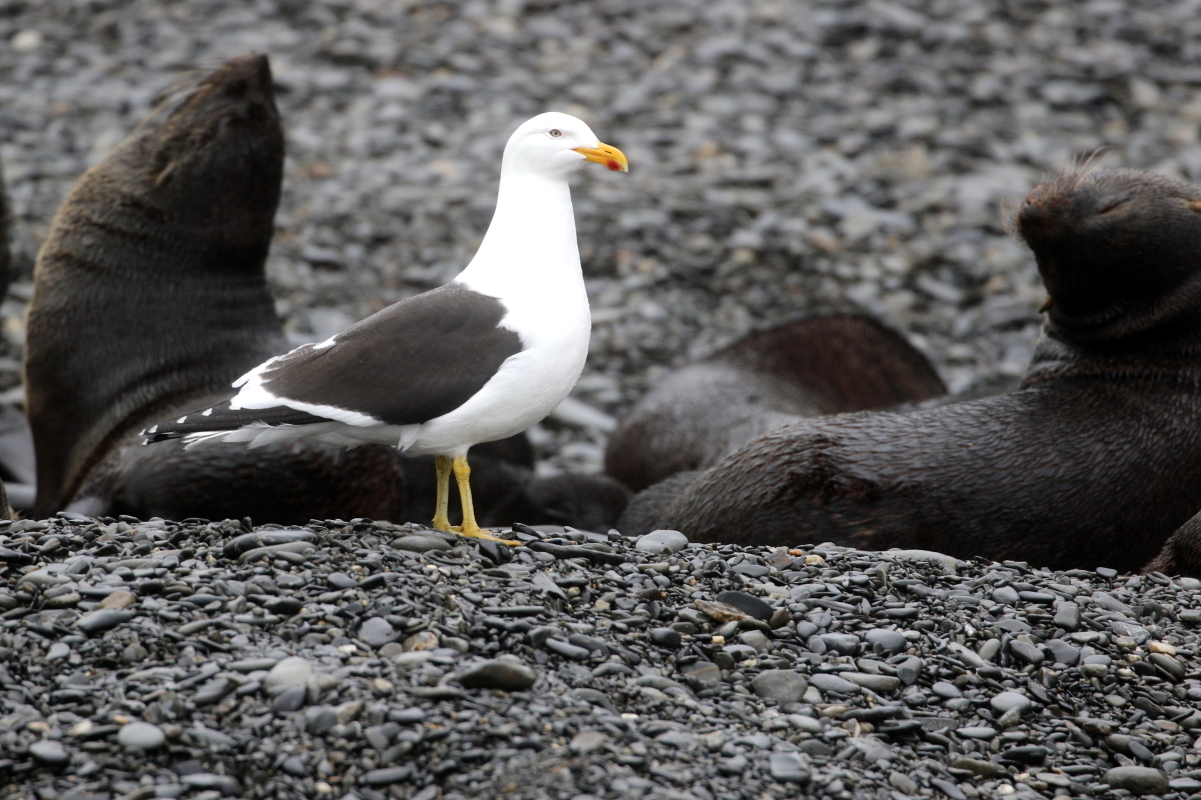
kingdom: Animalia
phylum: Chordata
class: Aves
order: Charadriiformes
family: Laridae
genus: Larus
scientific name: Larus dominicanus
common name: Kelp gull
